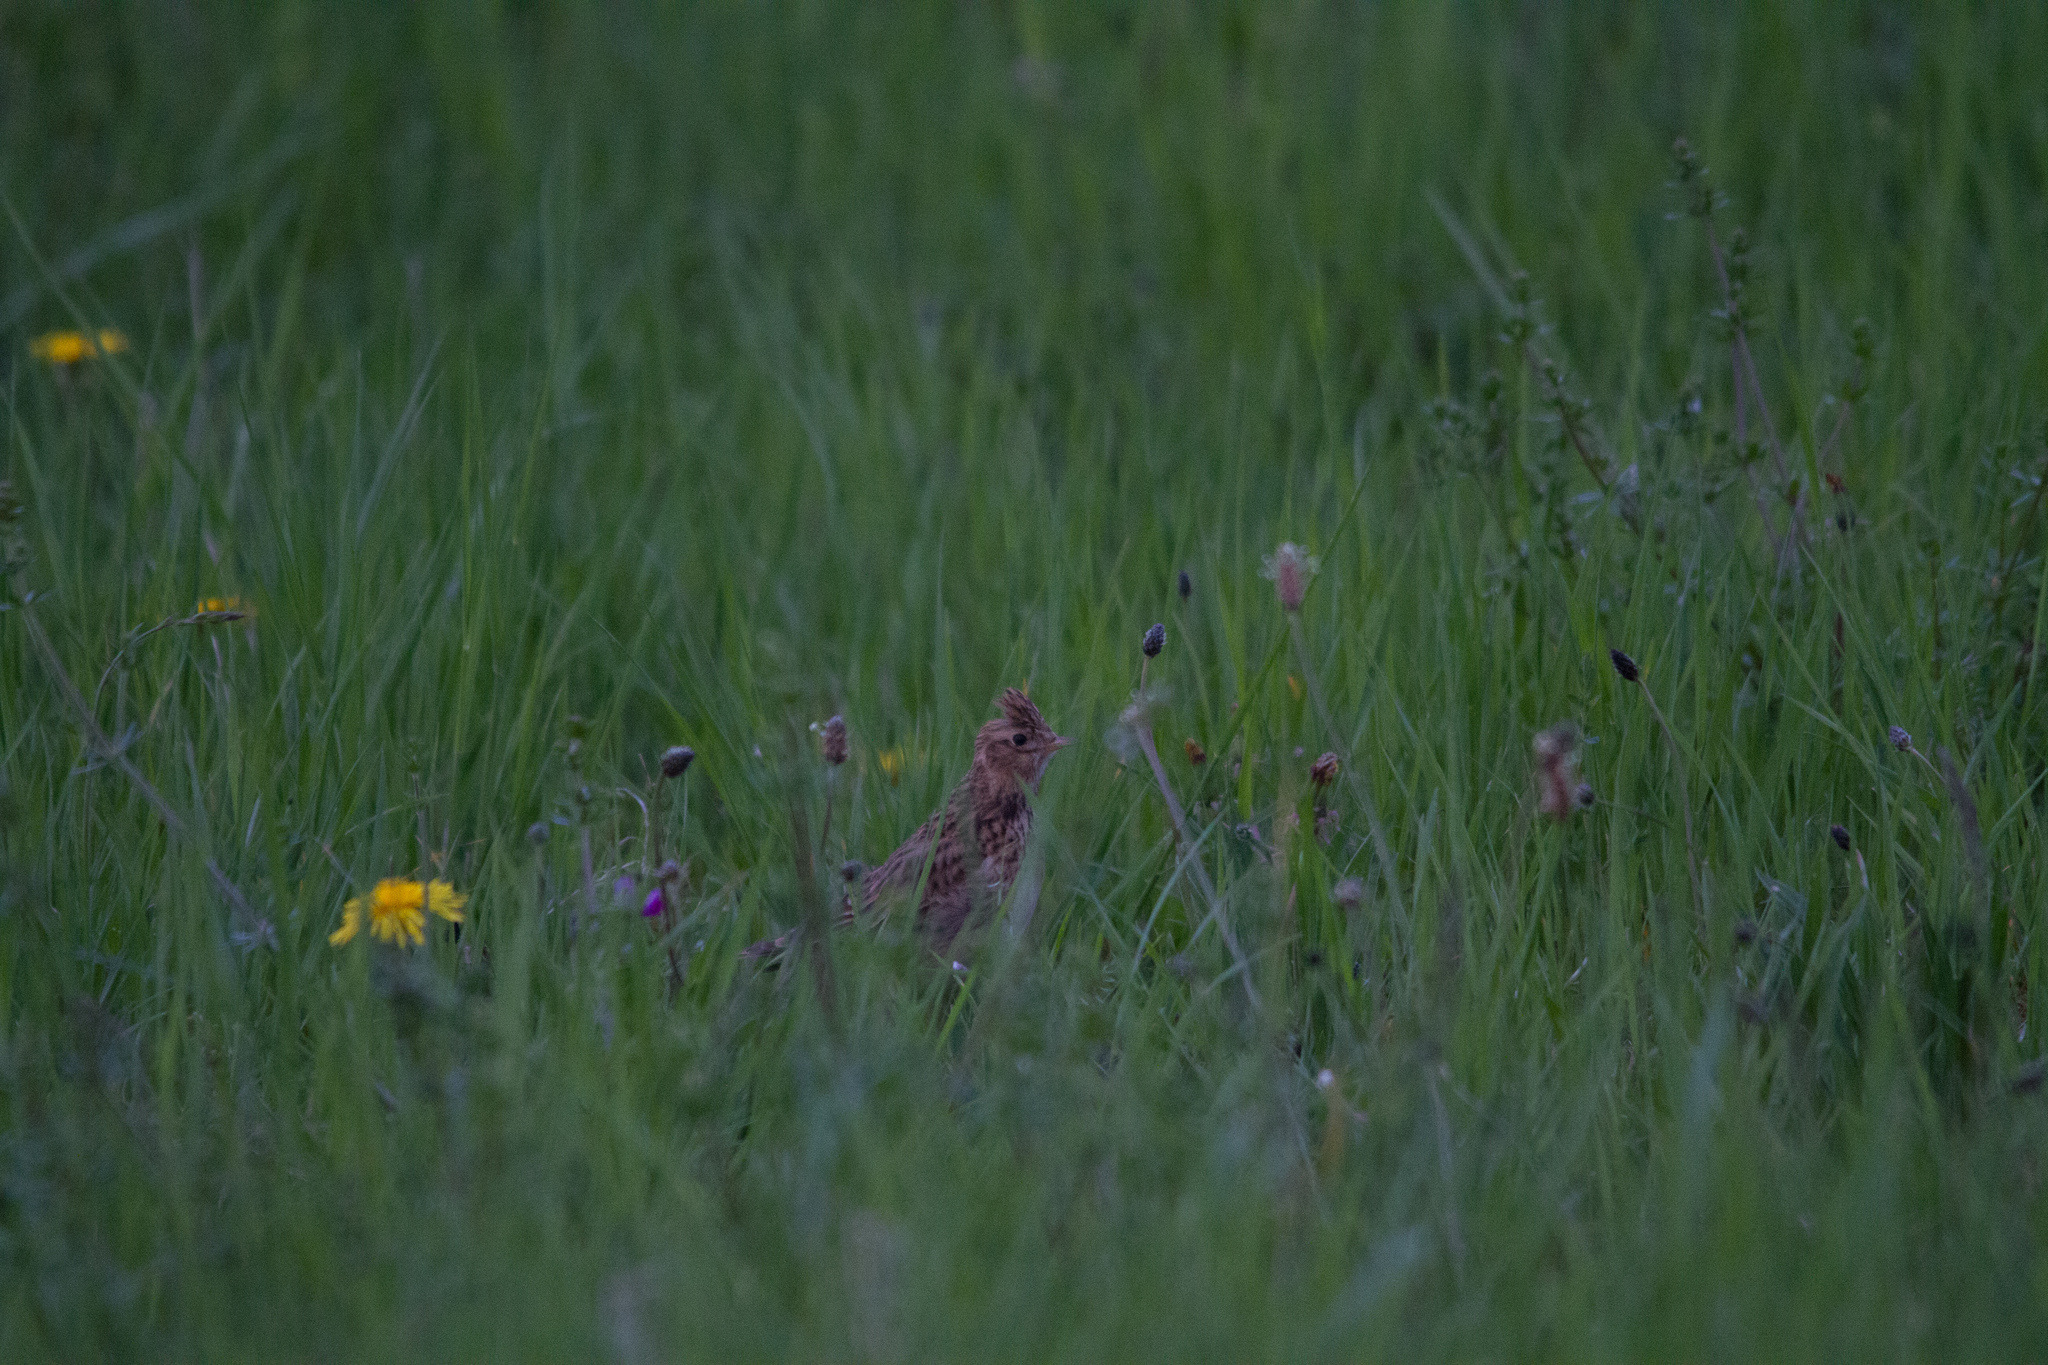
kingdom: Animalia
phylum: Chordata
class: Aves
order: Passeriformes
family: Alaudidae
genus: Alauda
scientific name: Alauda arvensis
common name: Eurasian skylark
